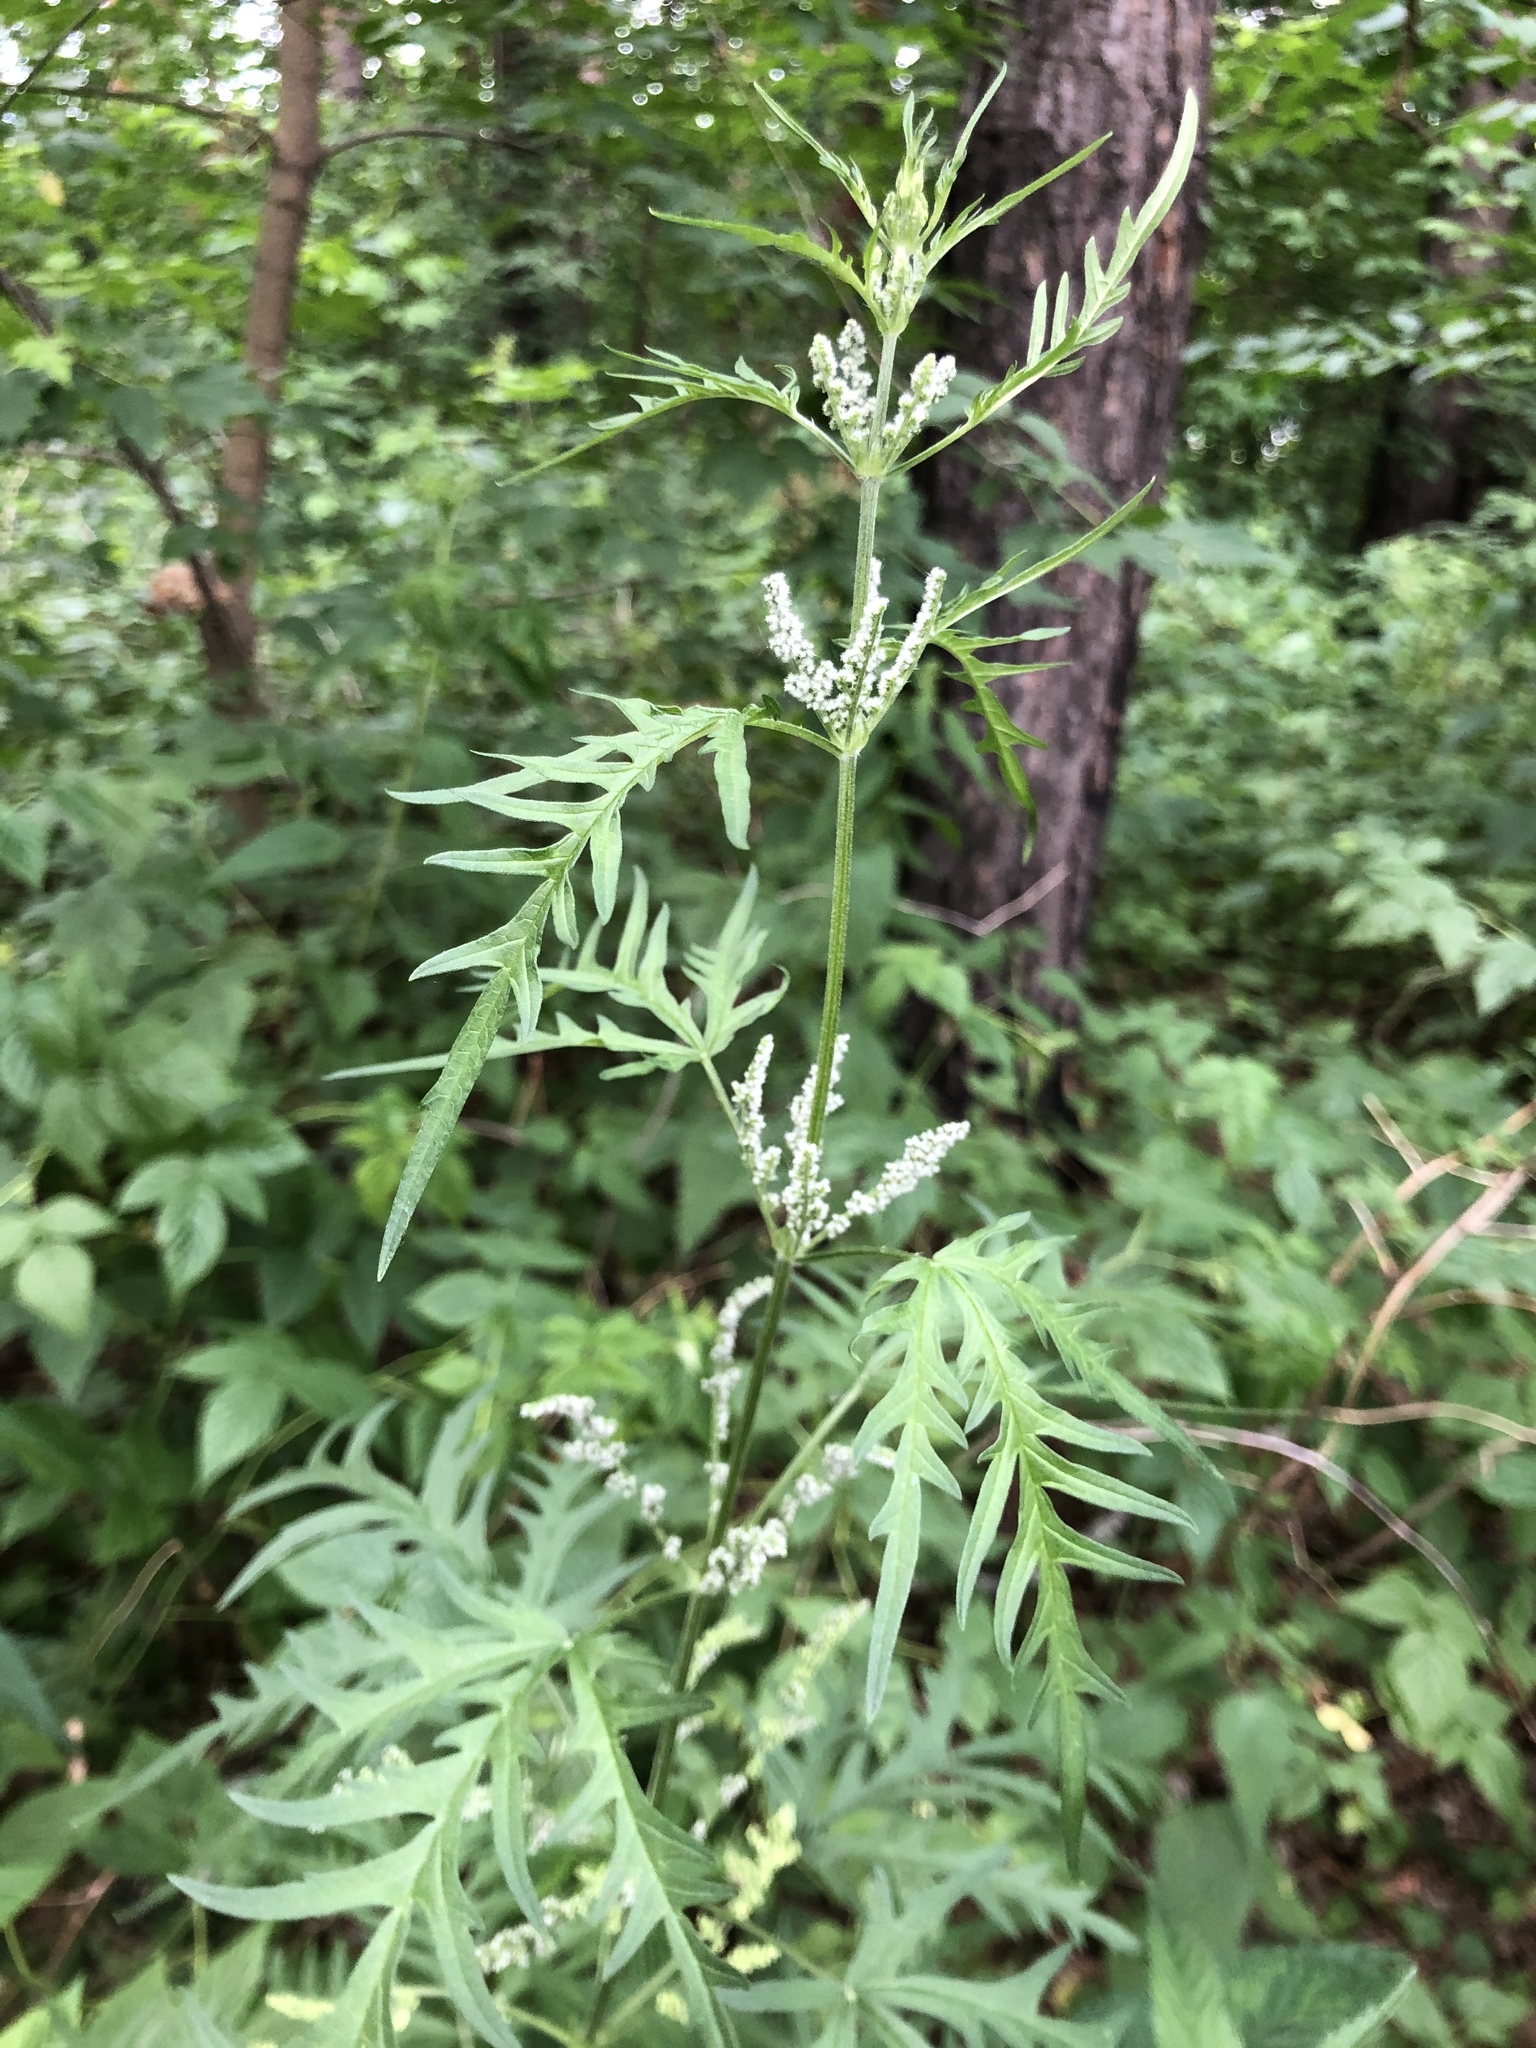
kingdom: Plantae
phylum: Tracheophyta
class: Magnoliopsida
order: Rosales
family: Urticaceae
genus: Urtica
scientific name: Urtica cannabina
